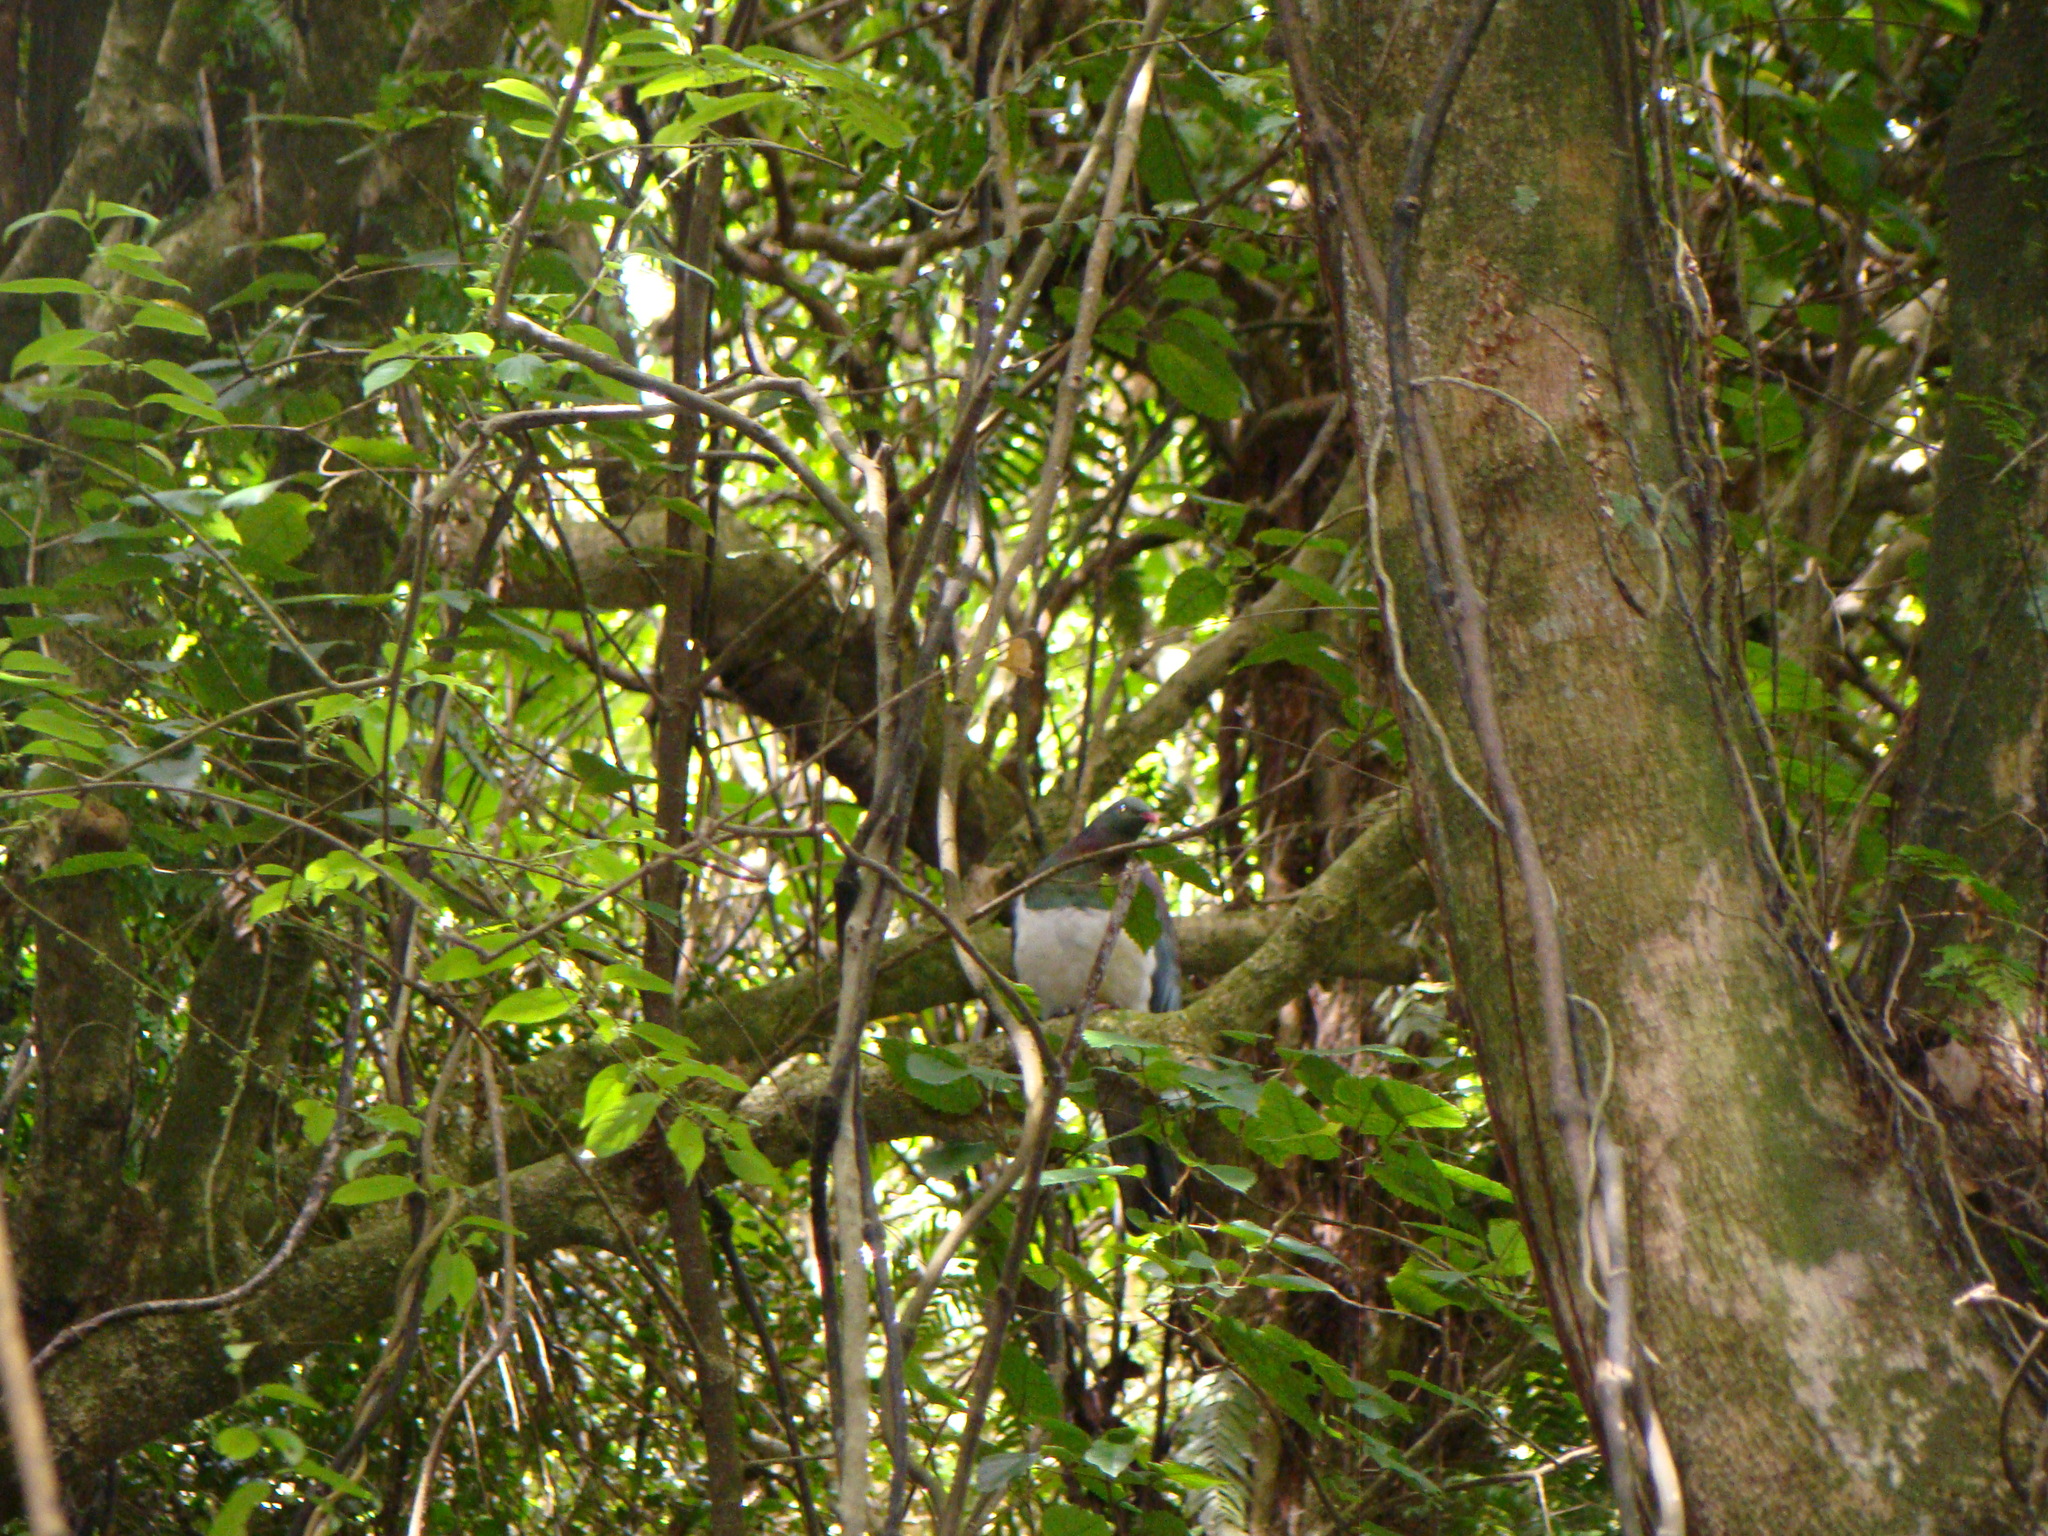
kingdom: Animalia
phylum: Chordata
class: Aves
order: Columbiformes
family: Columbidae
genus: Hemiphaga
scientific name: Hemiphaga novaeseelandiae
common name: New zealand pigeon
